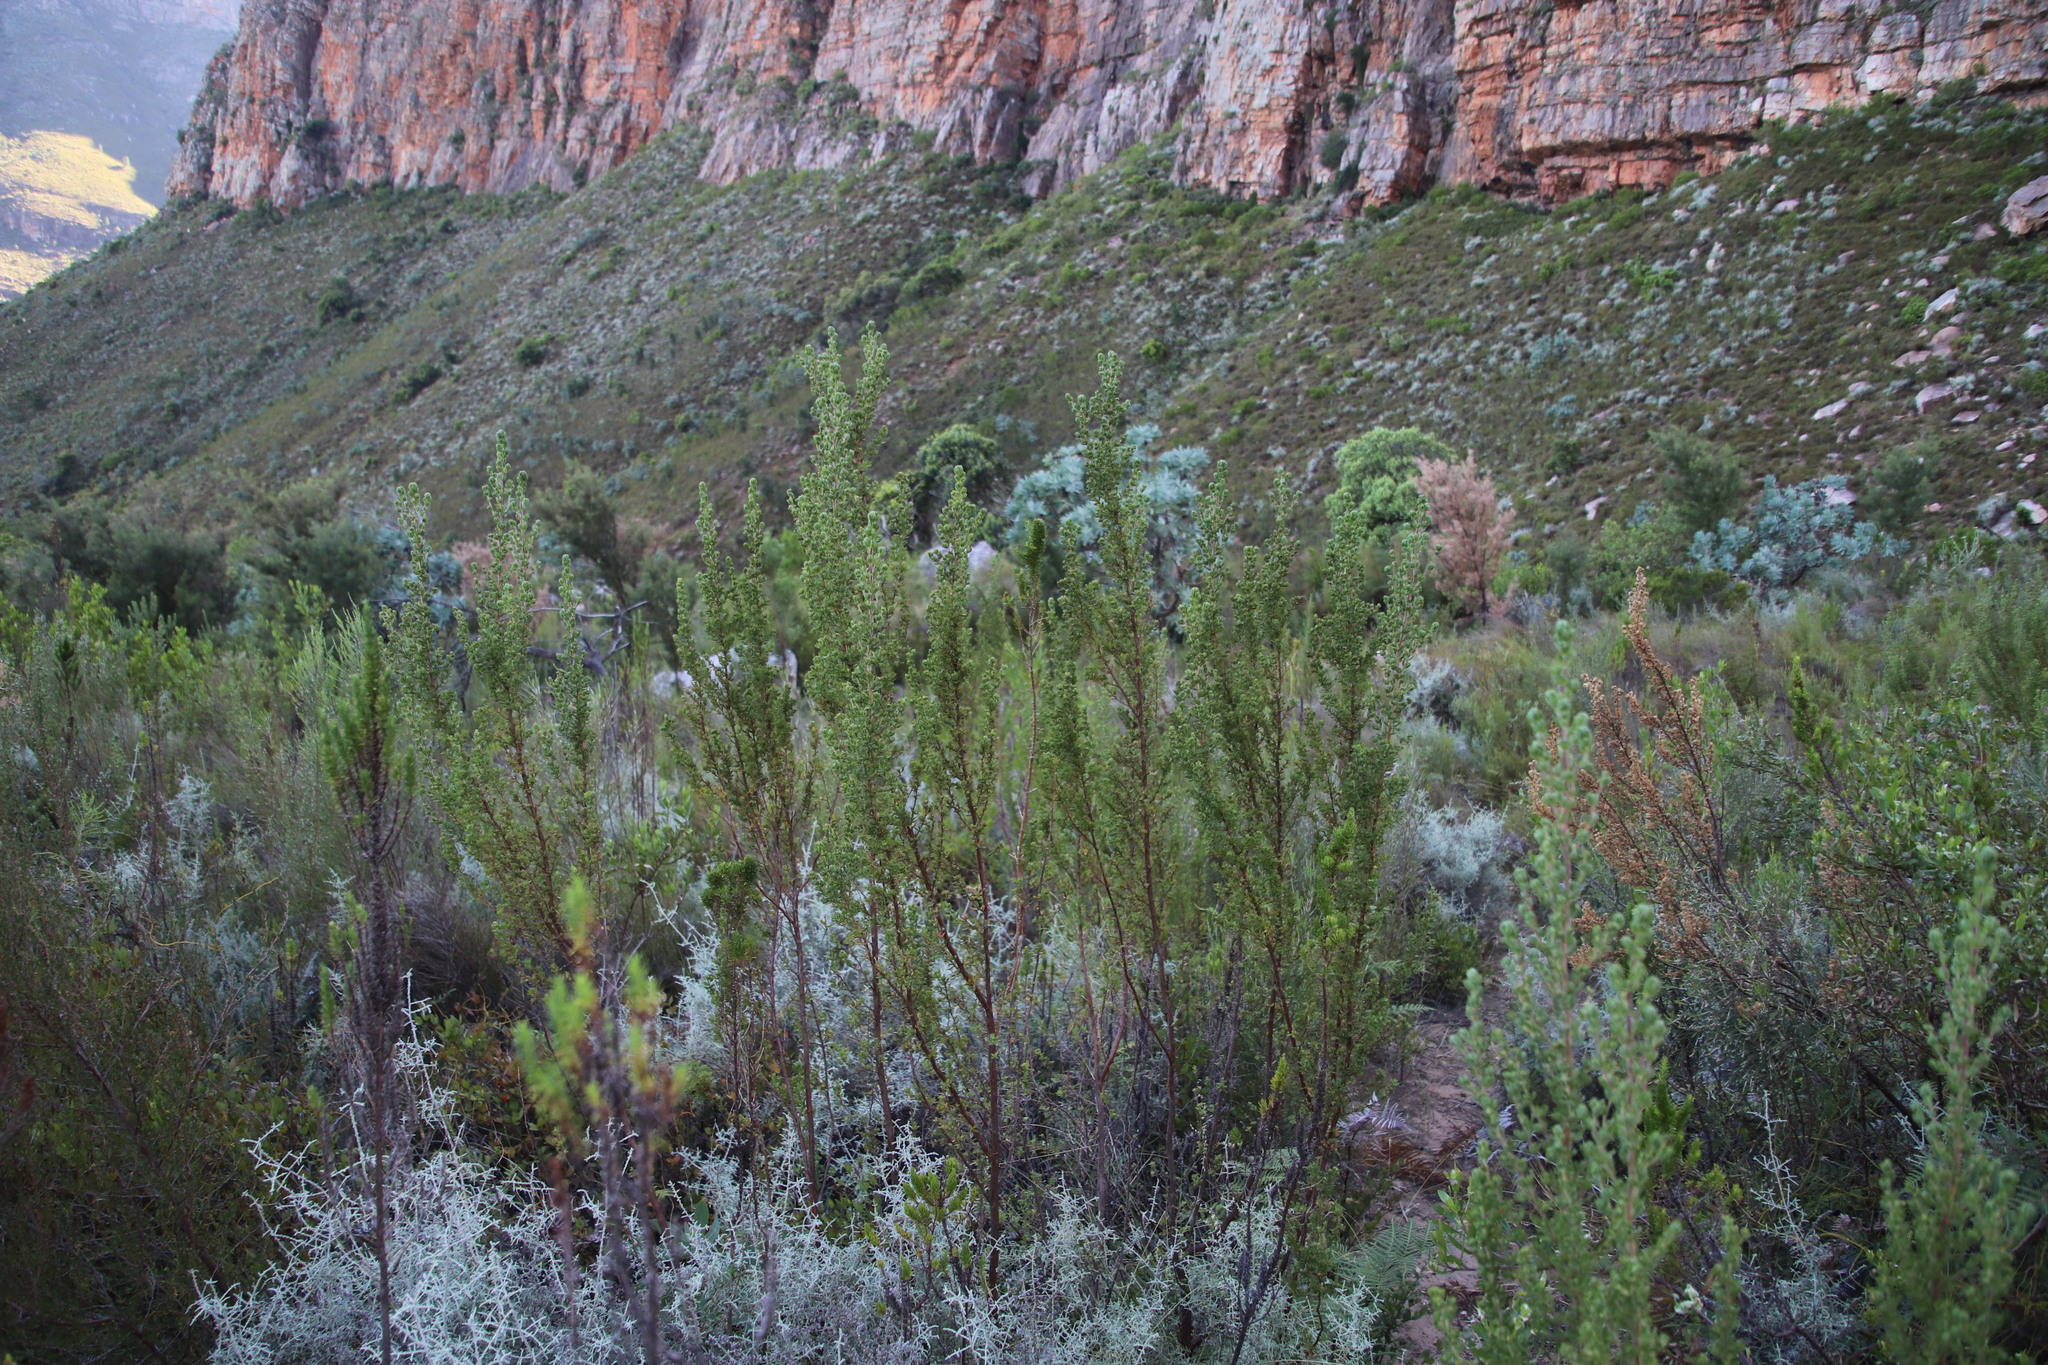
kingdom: Plantae
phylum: Tracheophyta
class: Magnoliopsida
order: Rosales
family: Rosaceae
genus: Cliffortia
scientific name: Cliffortia polygonifolia
